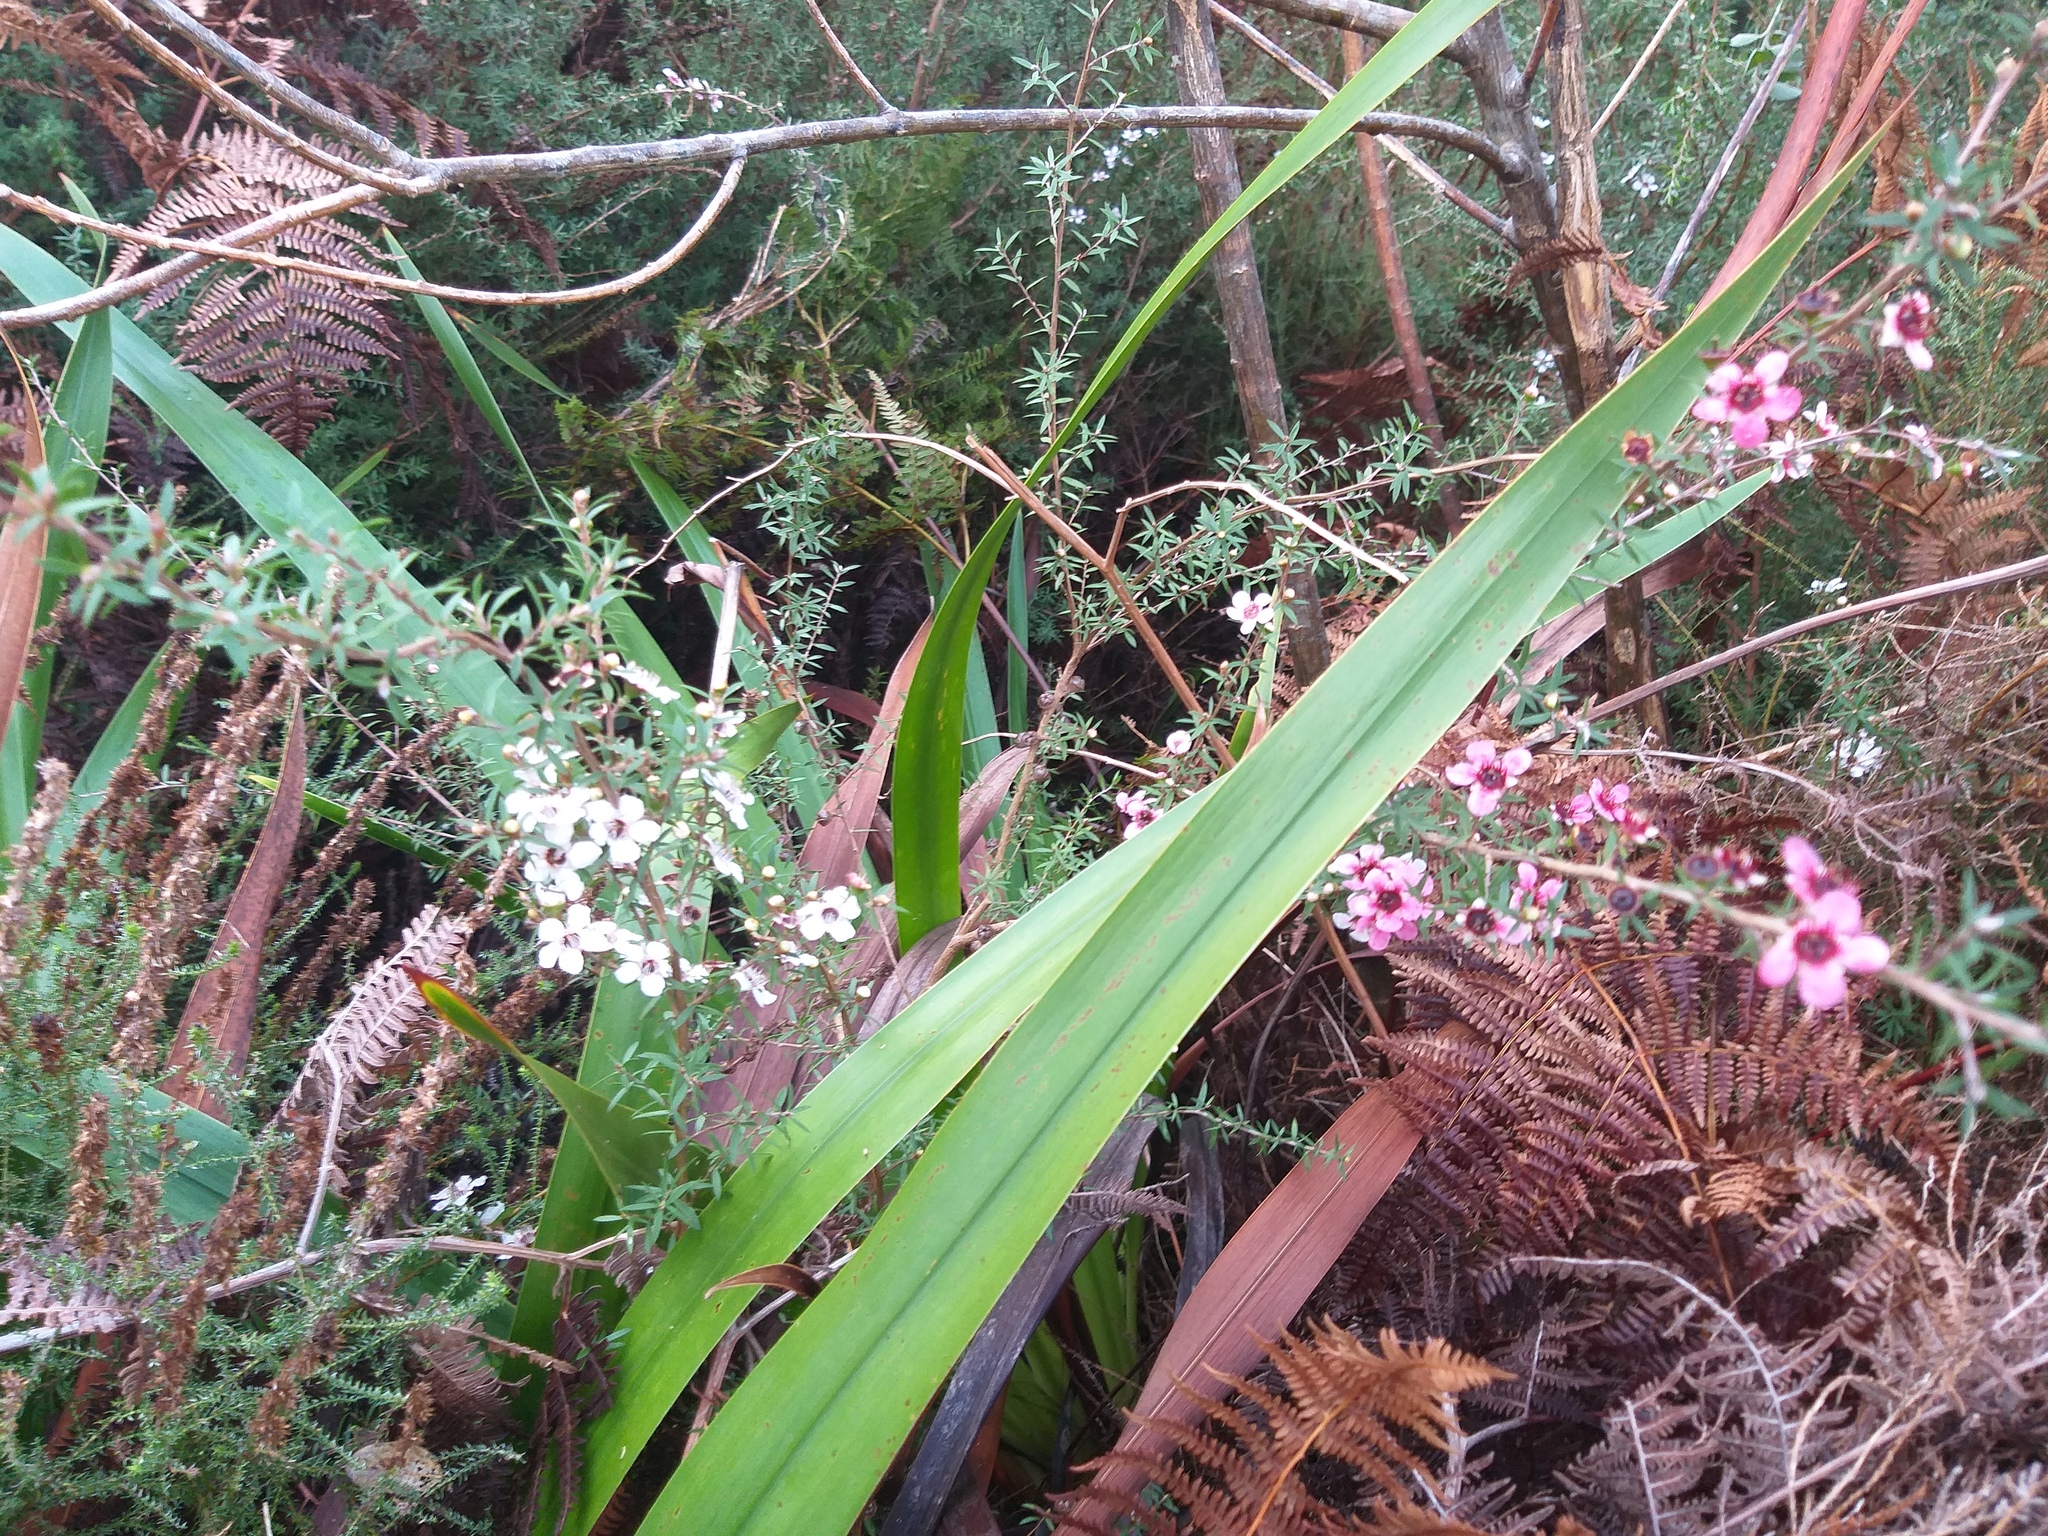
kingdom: Plantae
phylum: Tracheophyta
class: Magnoliopsida
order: Myrtales
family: Myrtaceae
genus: Leptospermum
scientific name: Leptospermum scoparium
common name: Broom tea-tree
